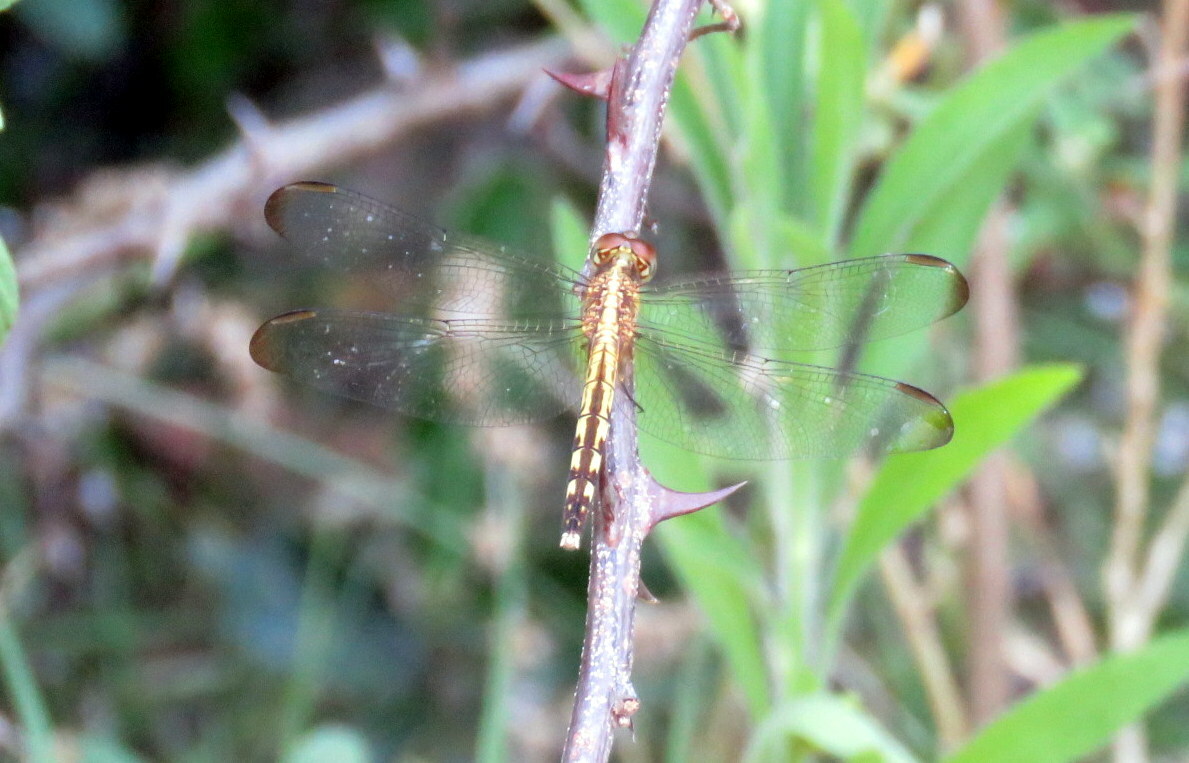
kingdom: Animalia
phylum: Arthropoda
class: Insecta
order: Odonata
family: Libellulidae
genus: Erythrodiplax
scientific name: Erythrodiplax umbrata
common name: Band-winged dragonlet
